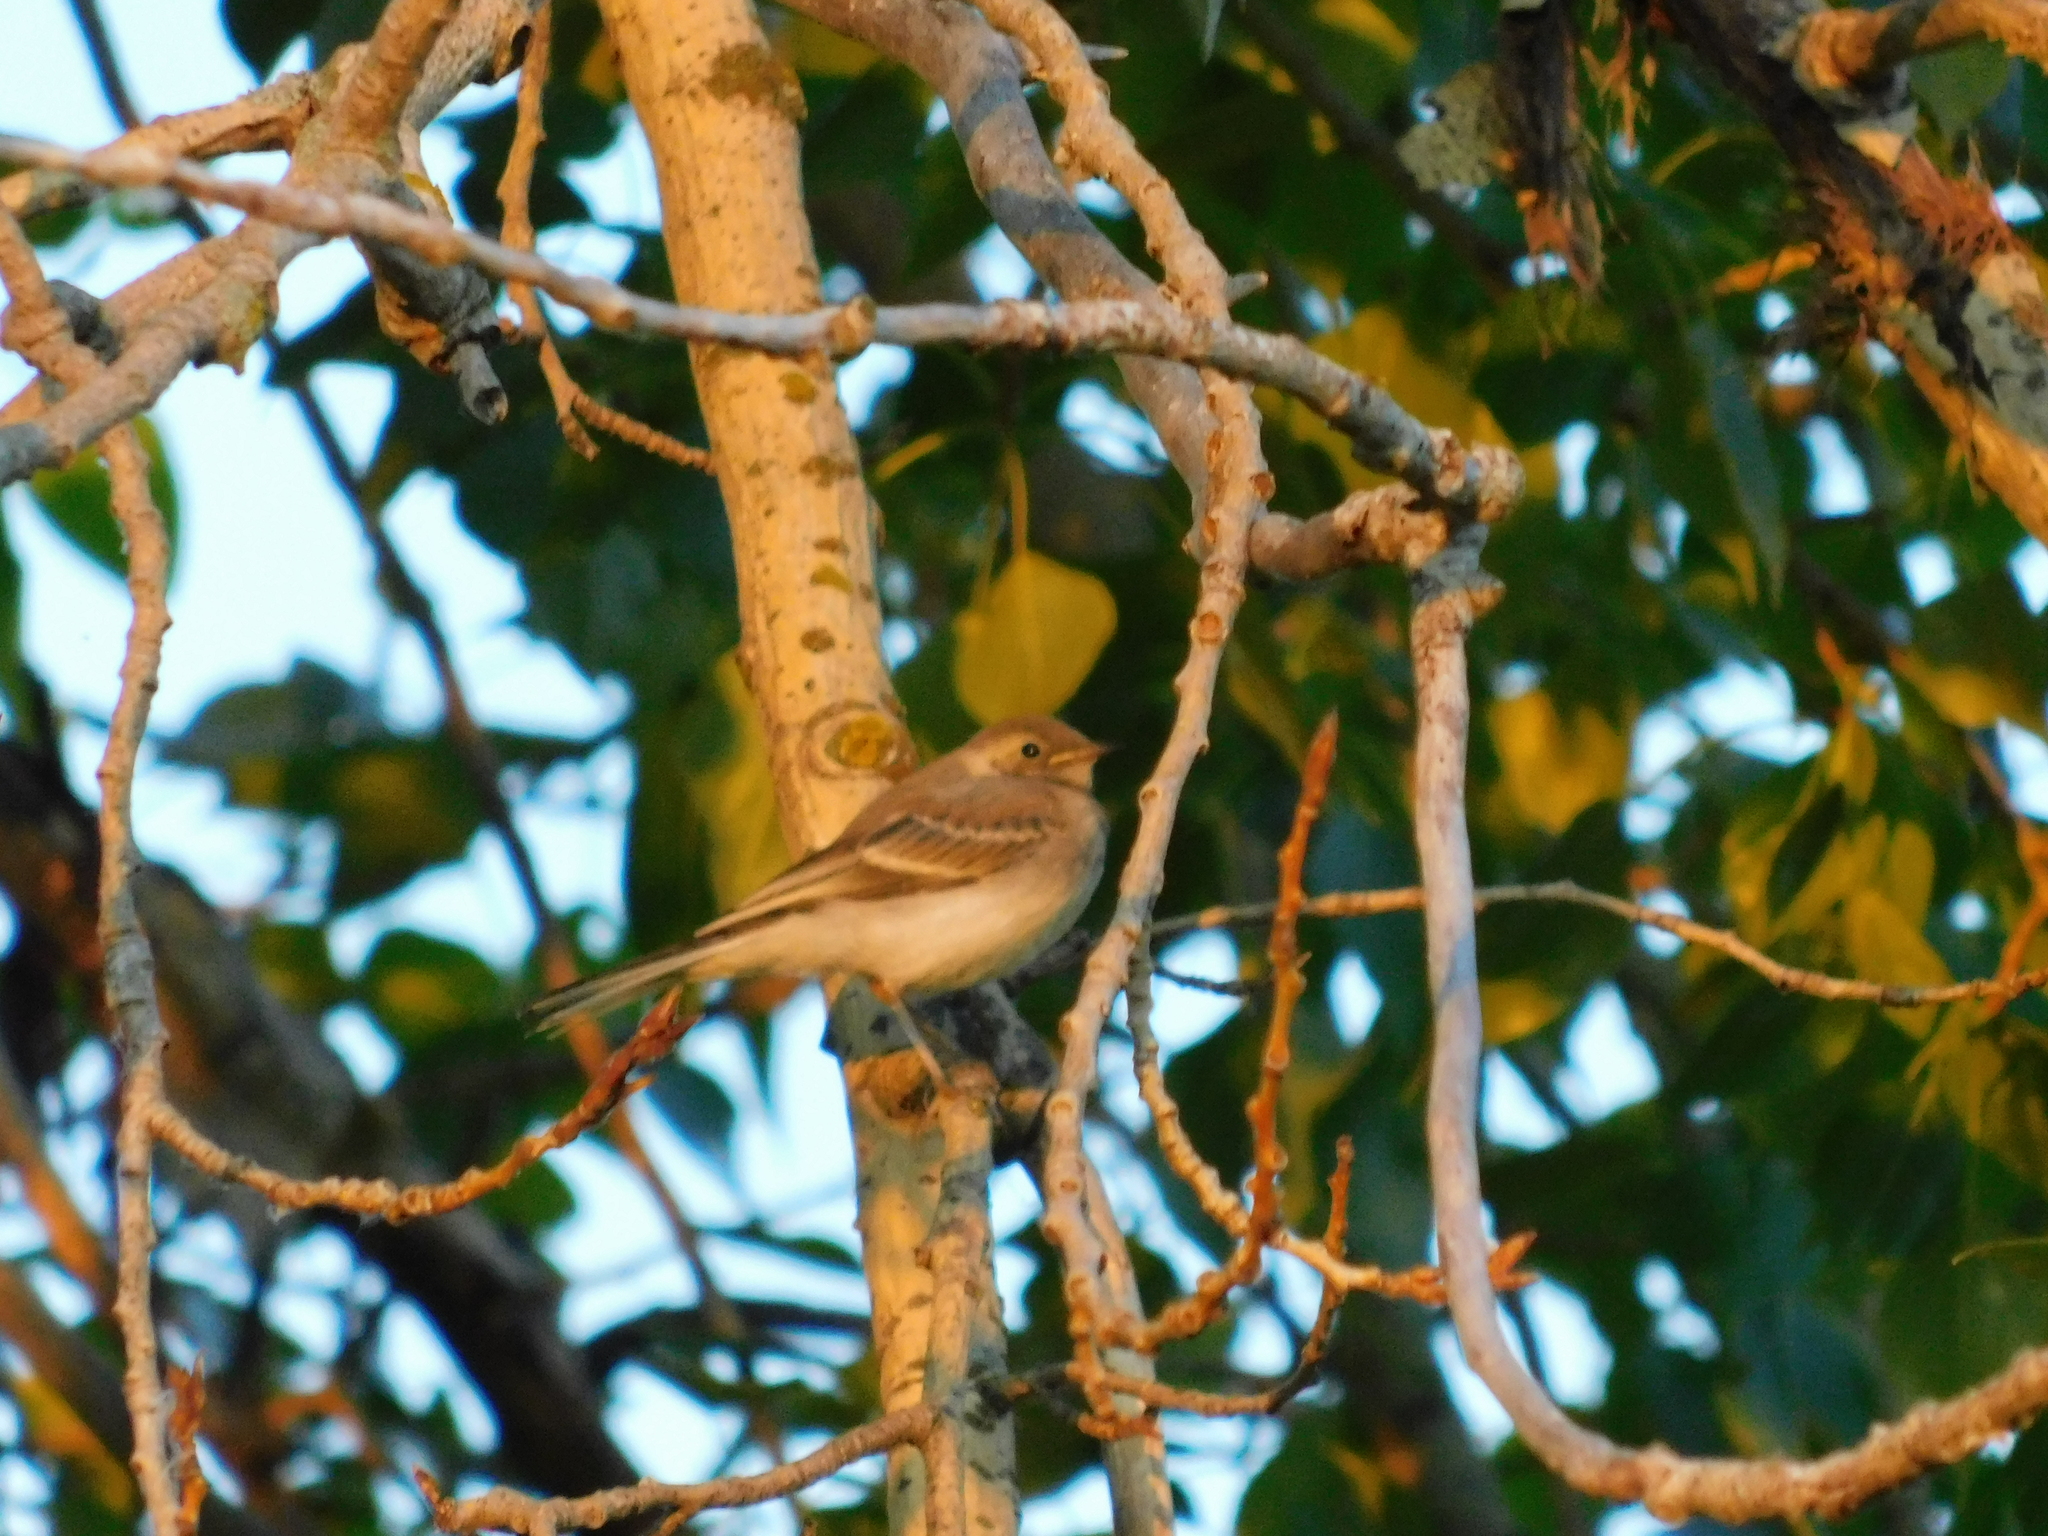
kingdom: Animalia
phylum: Chordata
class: Aves
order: Passeriformes
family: Motacillidae
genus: Motacilla
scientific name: Motacilla alba
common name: White wagtail
